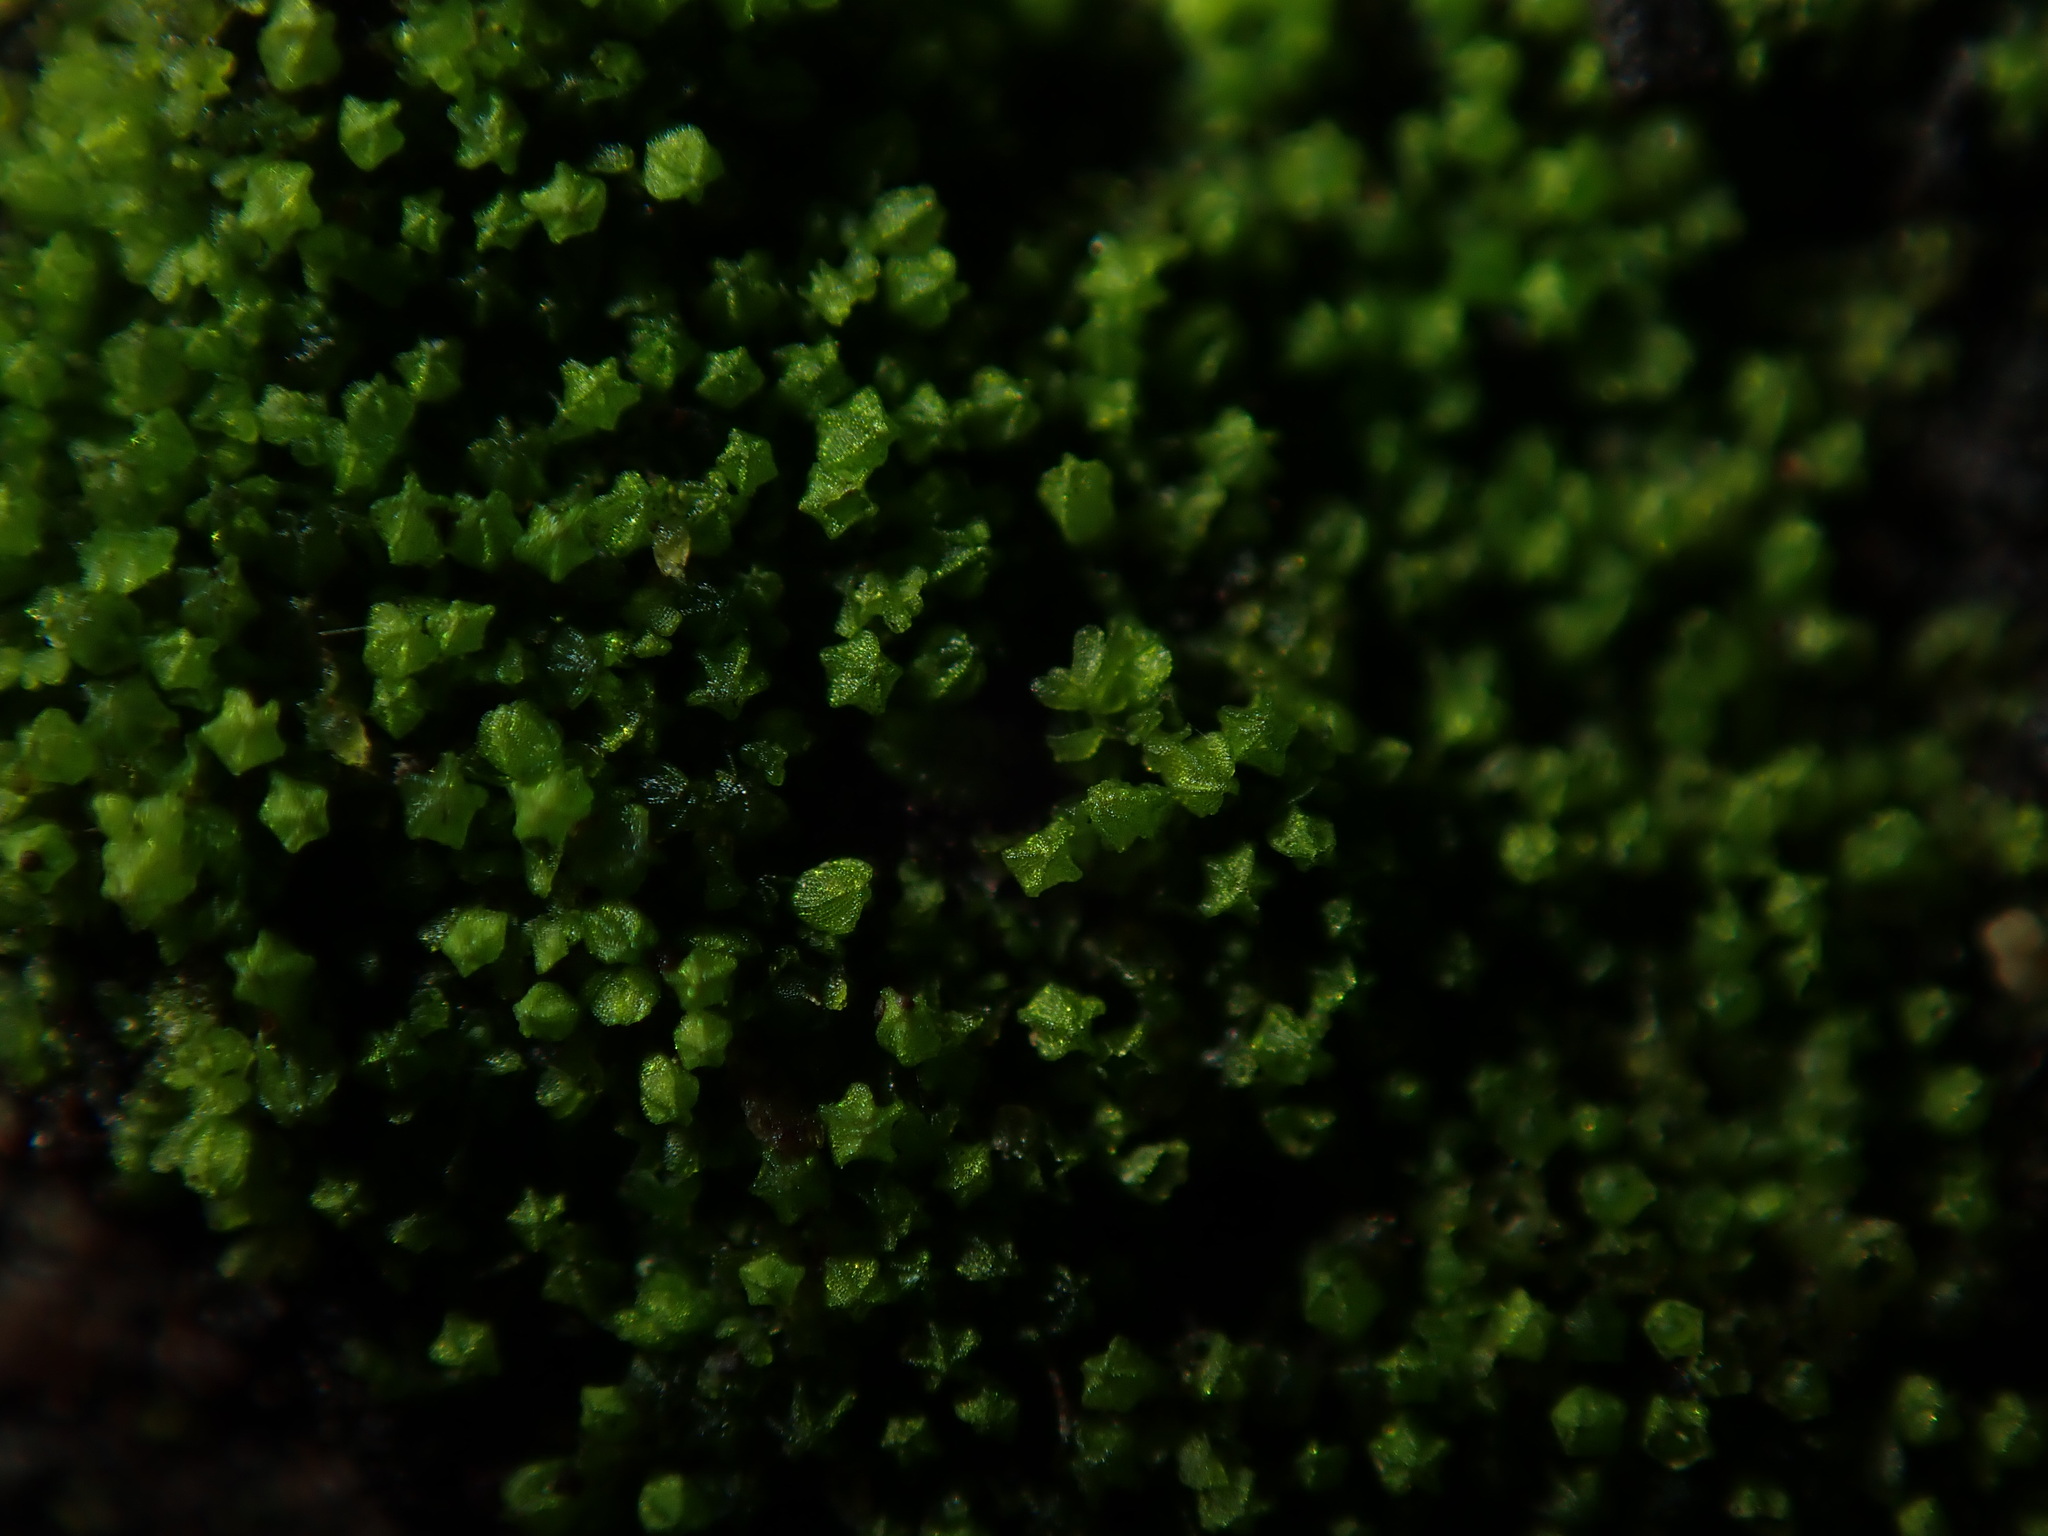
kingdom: Plantae
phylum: Marchantiophyta
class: Jungermanniopsida
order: Porellales
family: Lejeuneaceae
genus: Myriocoleopsis
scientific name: Myriocoleopsis minutissima
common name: Minute pouncewort
